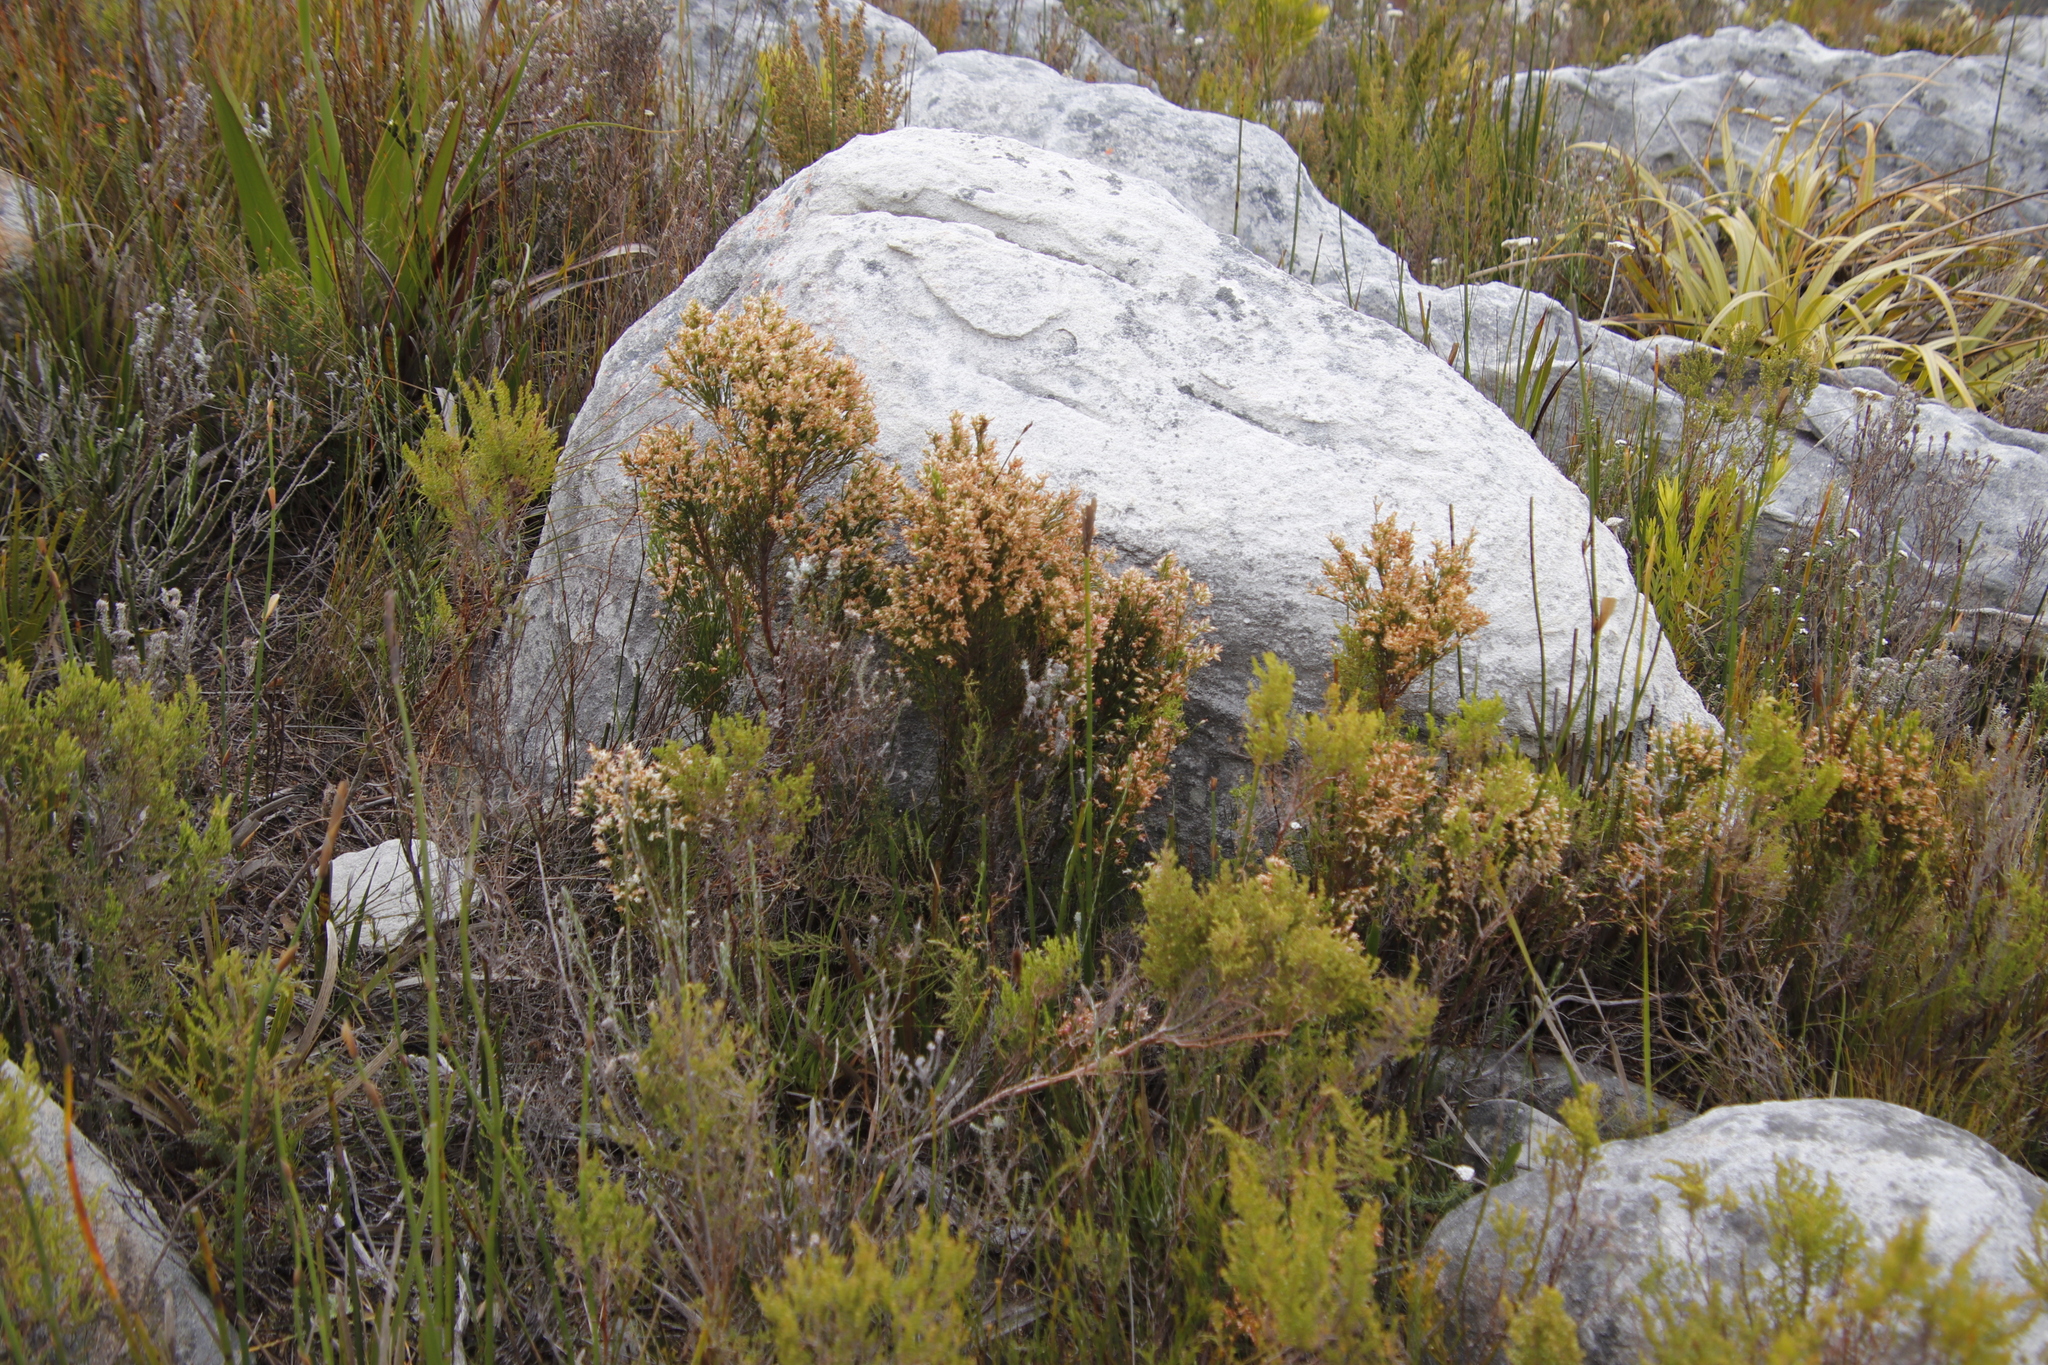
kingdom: Plantae
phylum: Tracheophyta
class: Magnoliopsida
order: Ericales
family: Ericaceae
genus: Erica
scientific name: Erica lutea
